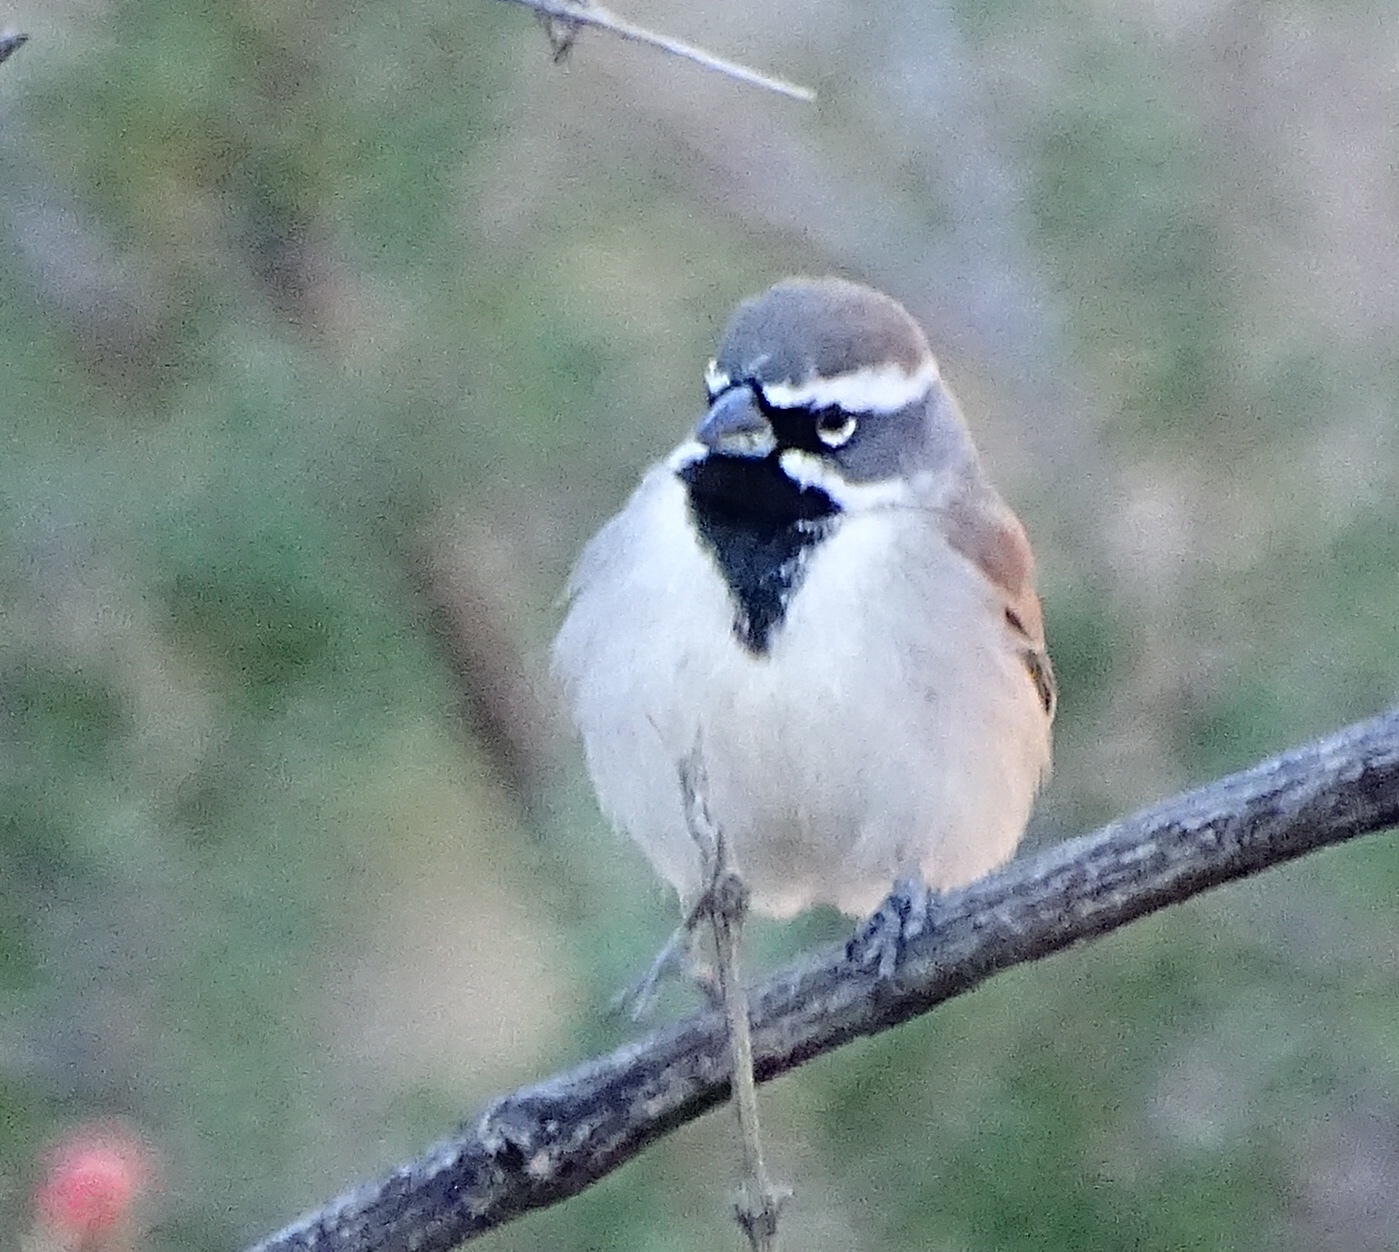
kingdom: Animalia
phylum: Chordata
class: Aves
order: Passeriformes
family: Passerellidae
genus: Amphispiza
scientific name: Amphispiza bilineata
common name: Black-throated sparrow
